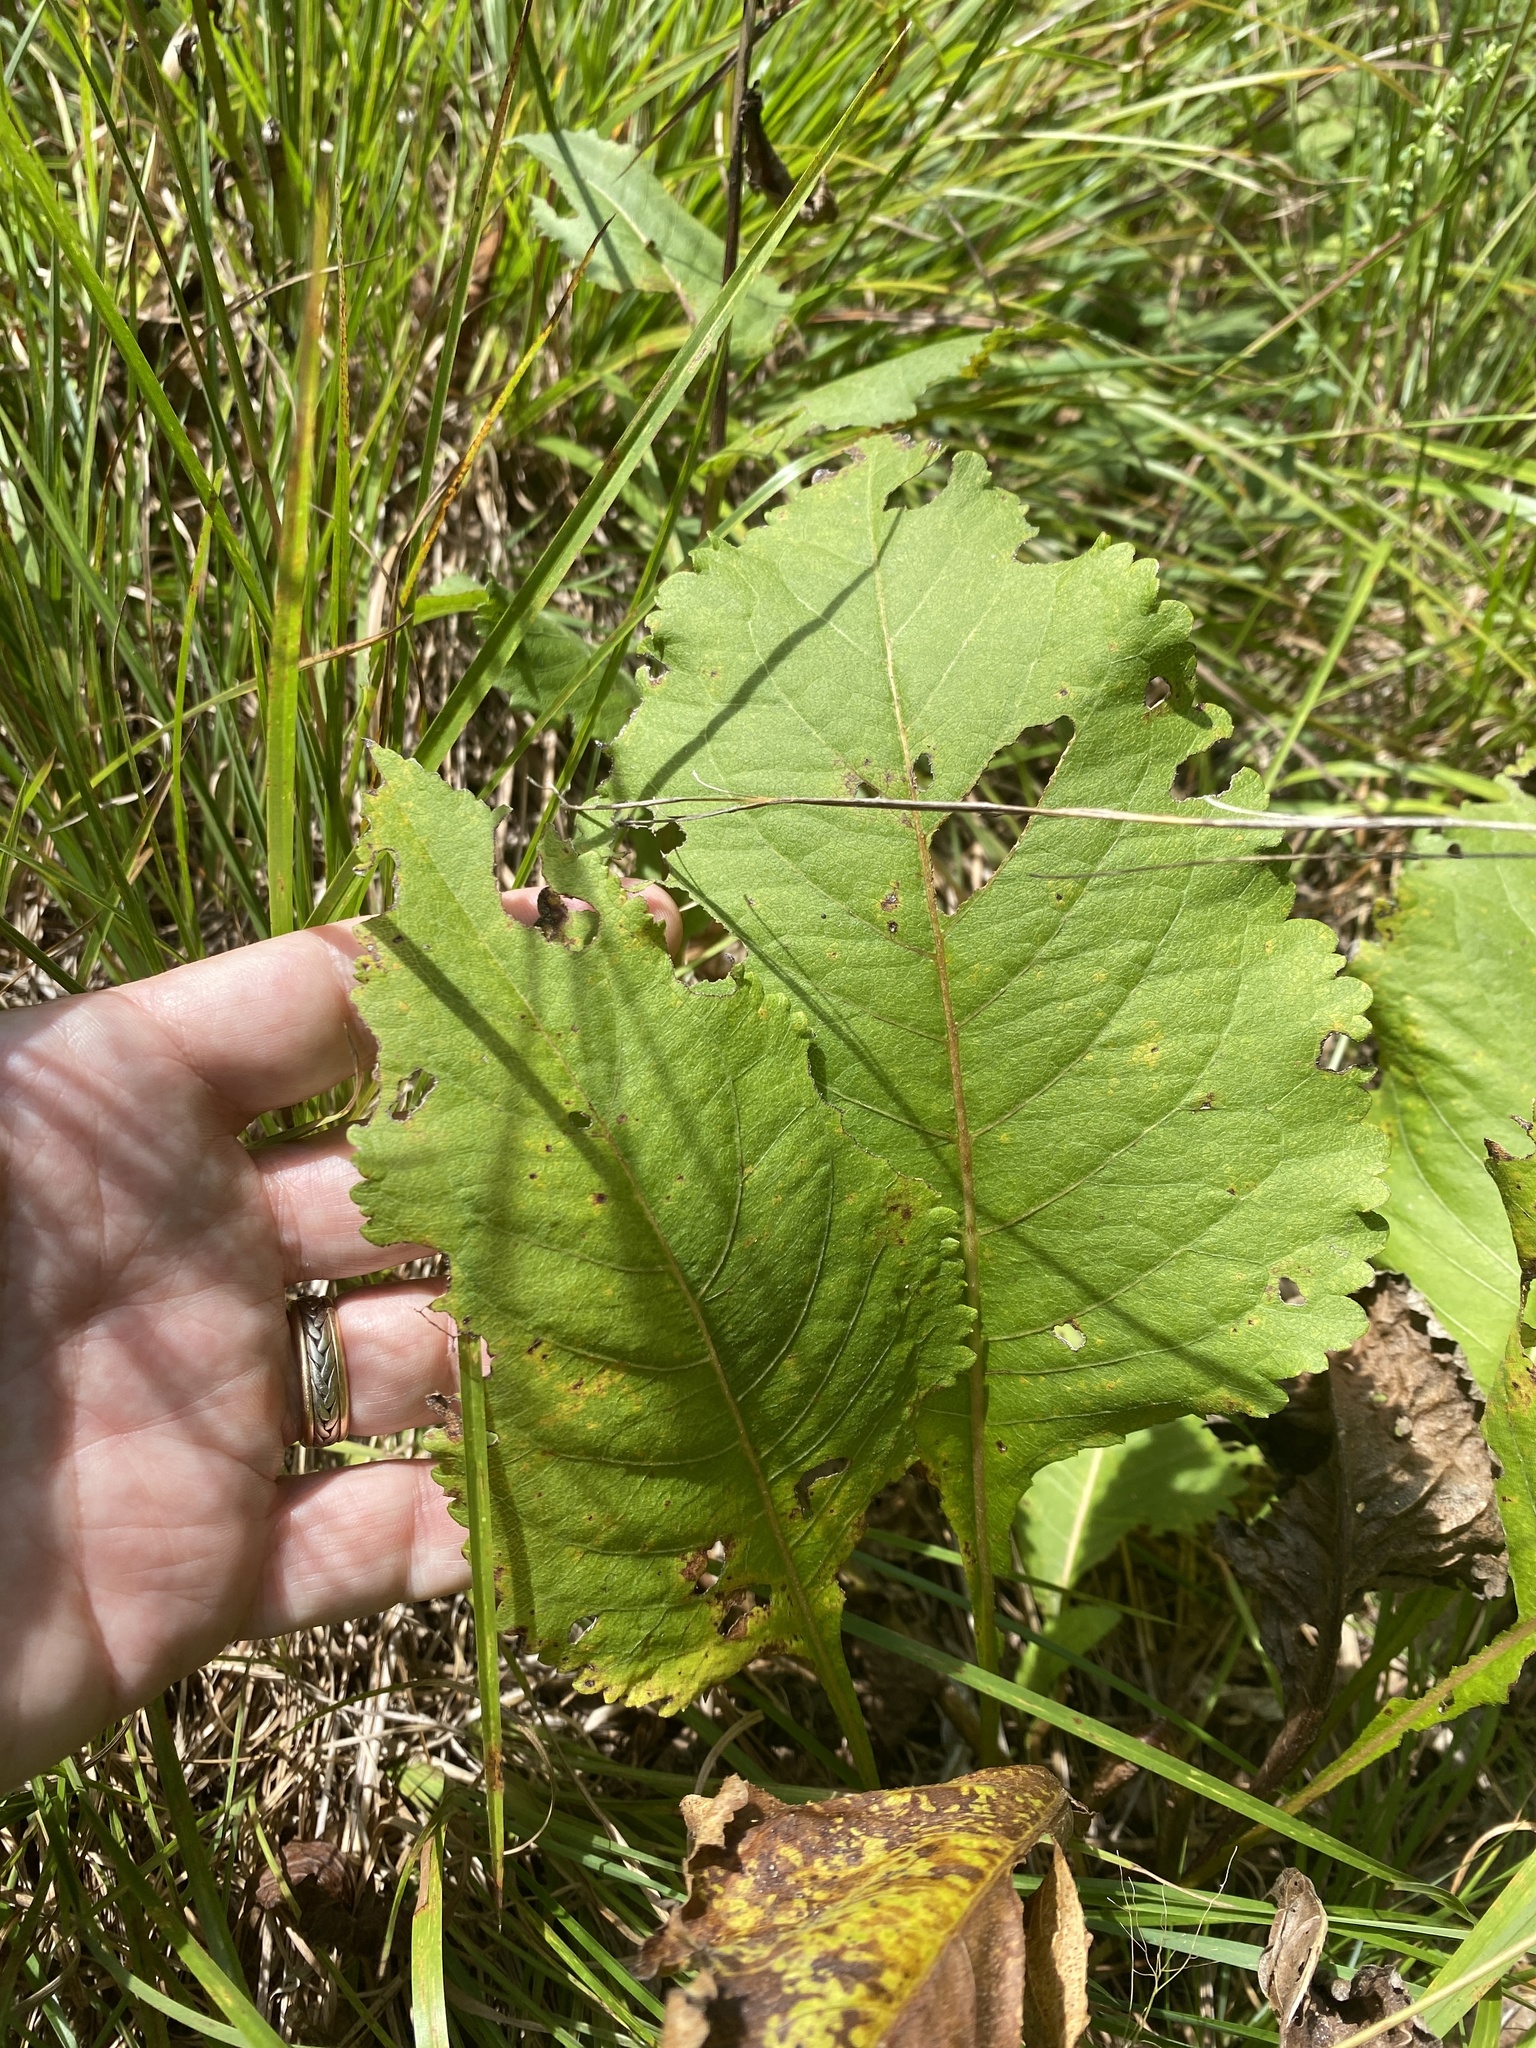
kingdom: Plantae
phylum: Tracheophyta
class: Magnoliopsida
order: Asterales
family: Asteraceae
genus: Parthenium
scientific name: Parthenium integrifolium
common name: American feverfew
